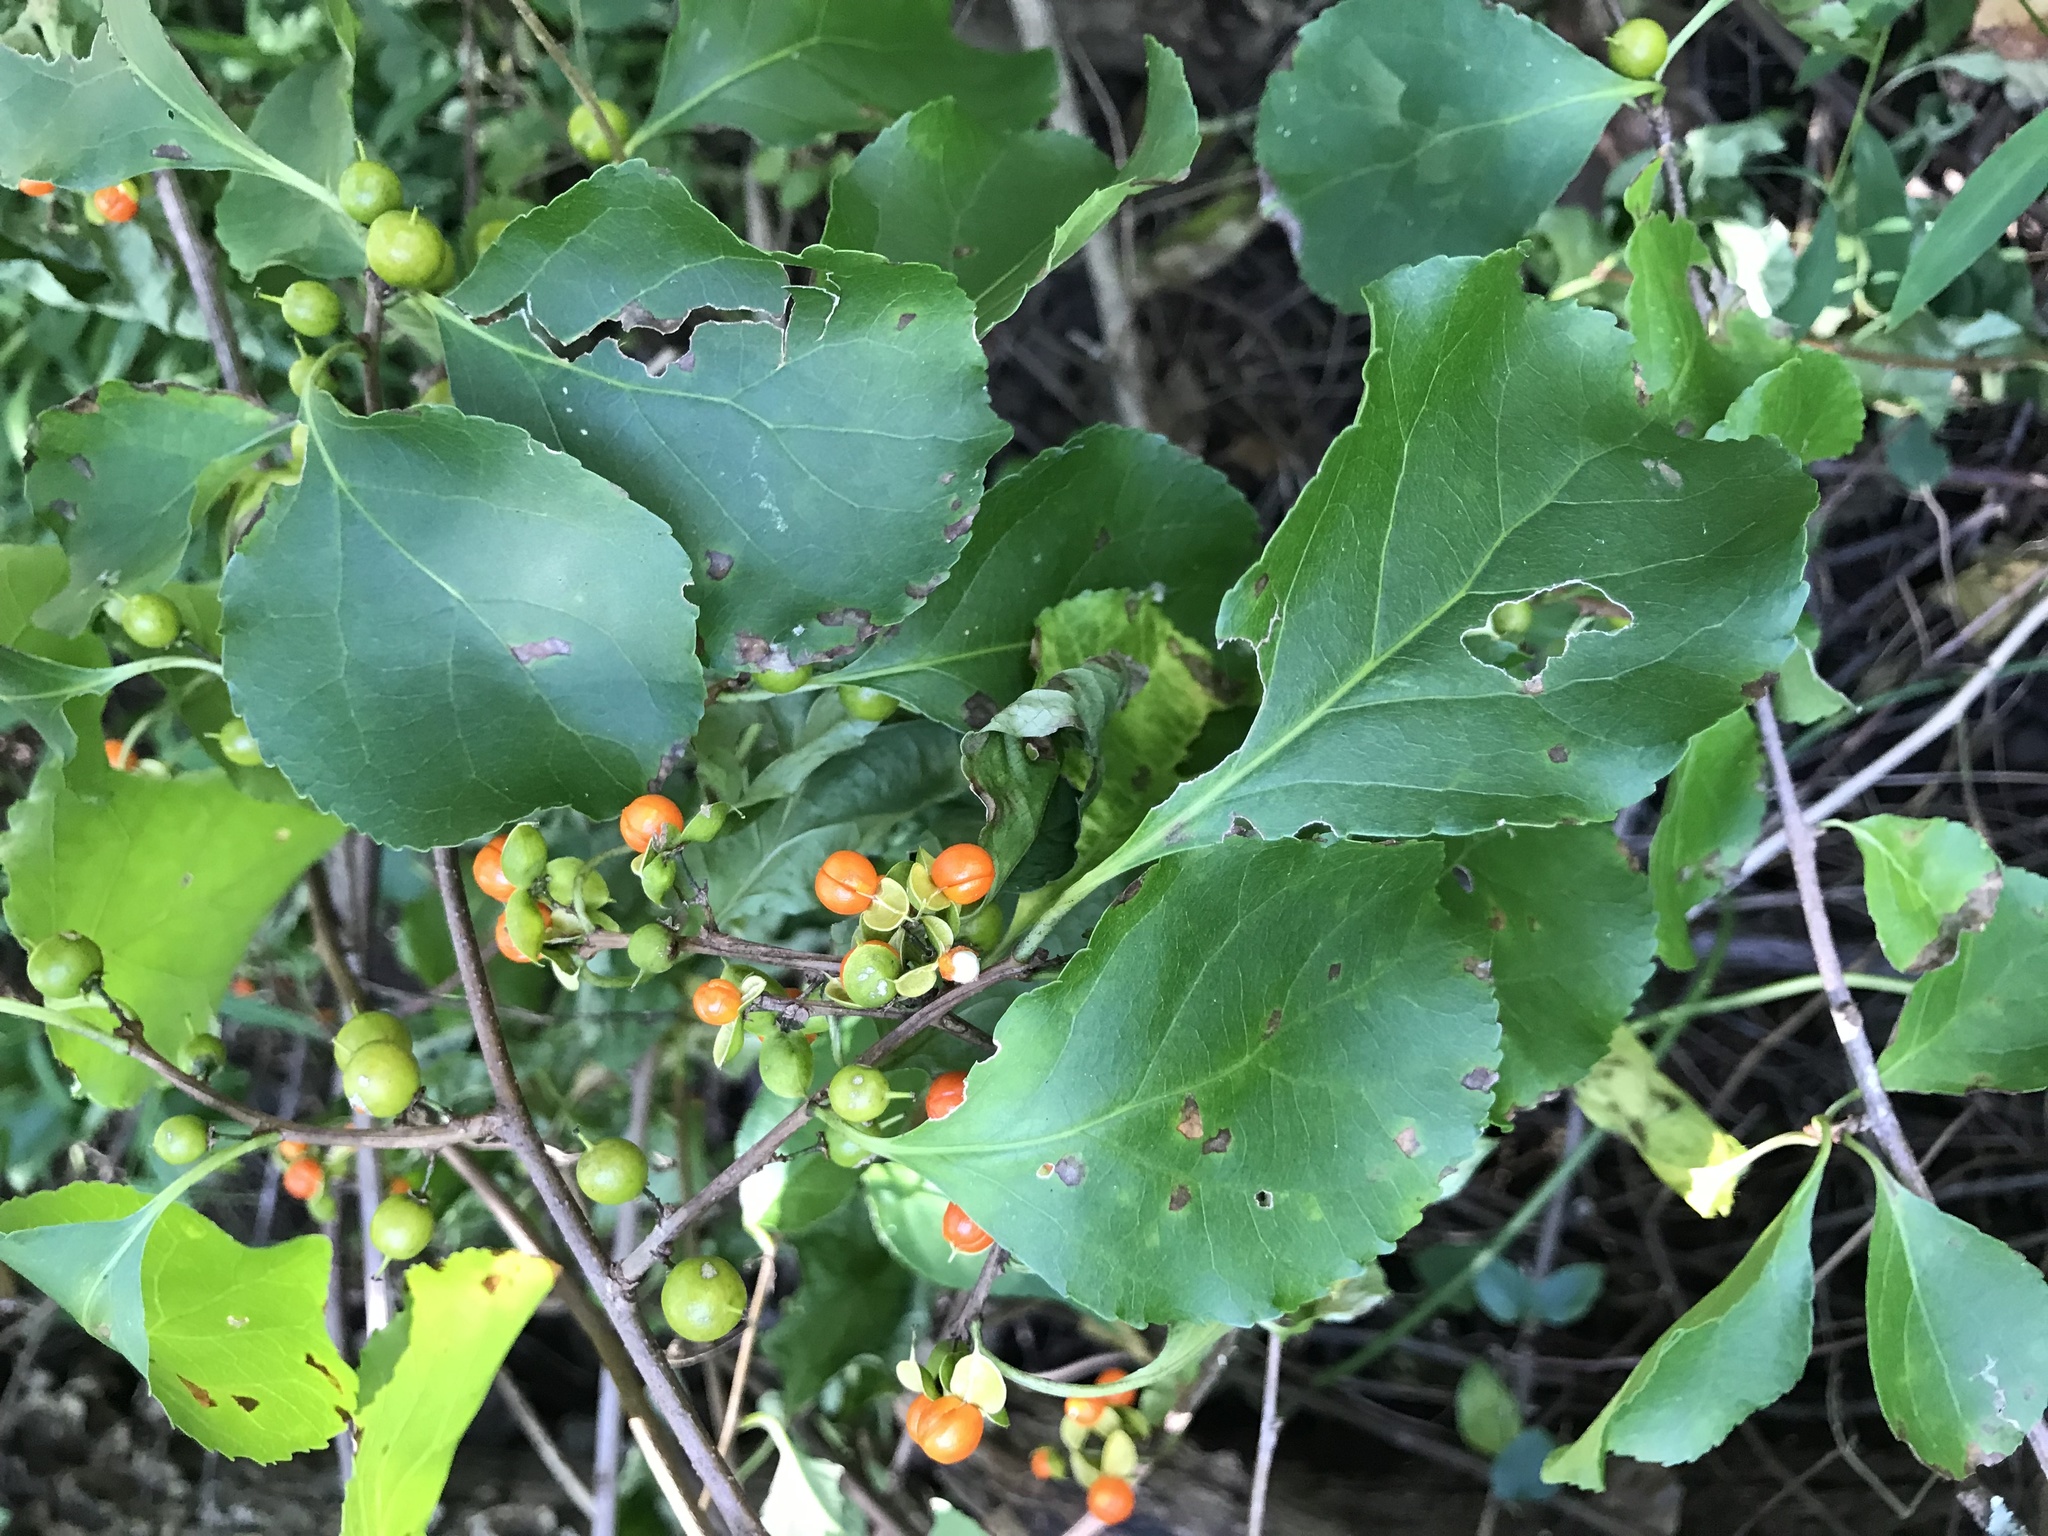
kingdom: Plantae
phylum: Tracheophyta
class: Magnoliopsida
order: Celastrales
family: Celastraceae
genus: Celastrus
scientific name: Celastrus orbiculatus
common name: Oriental bittersweet
